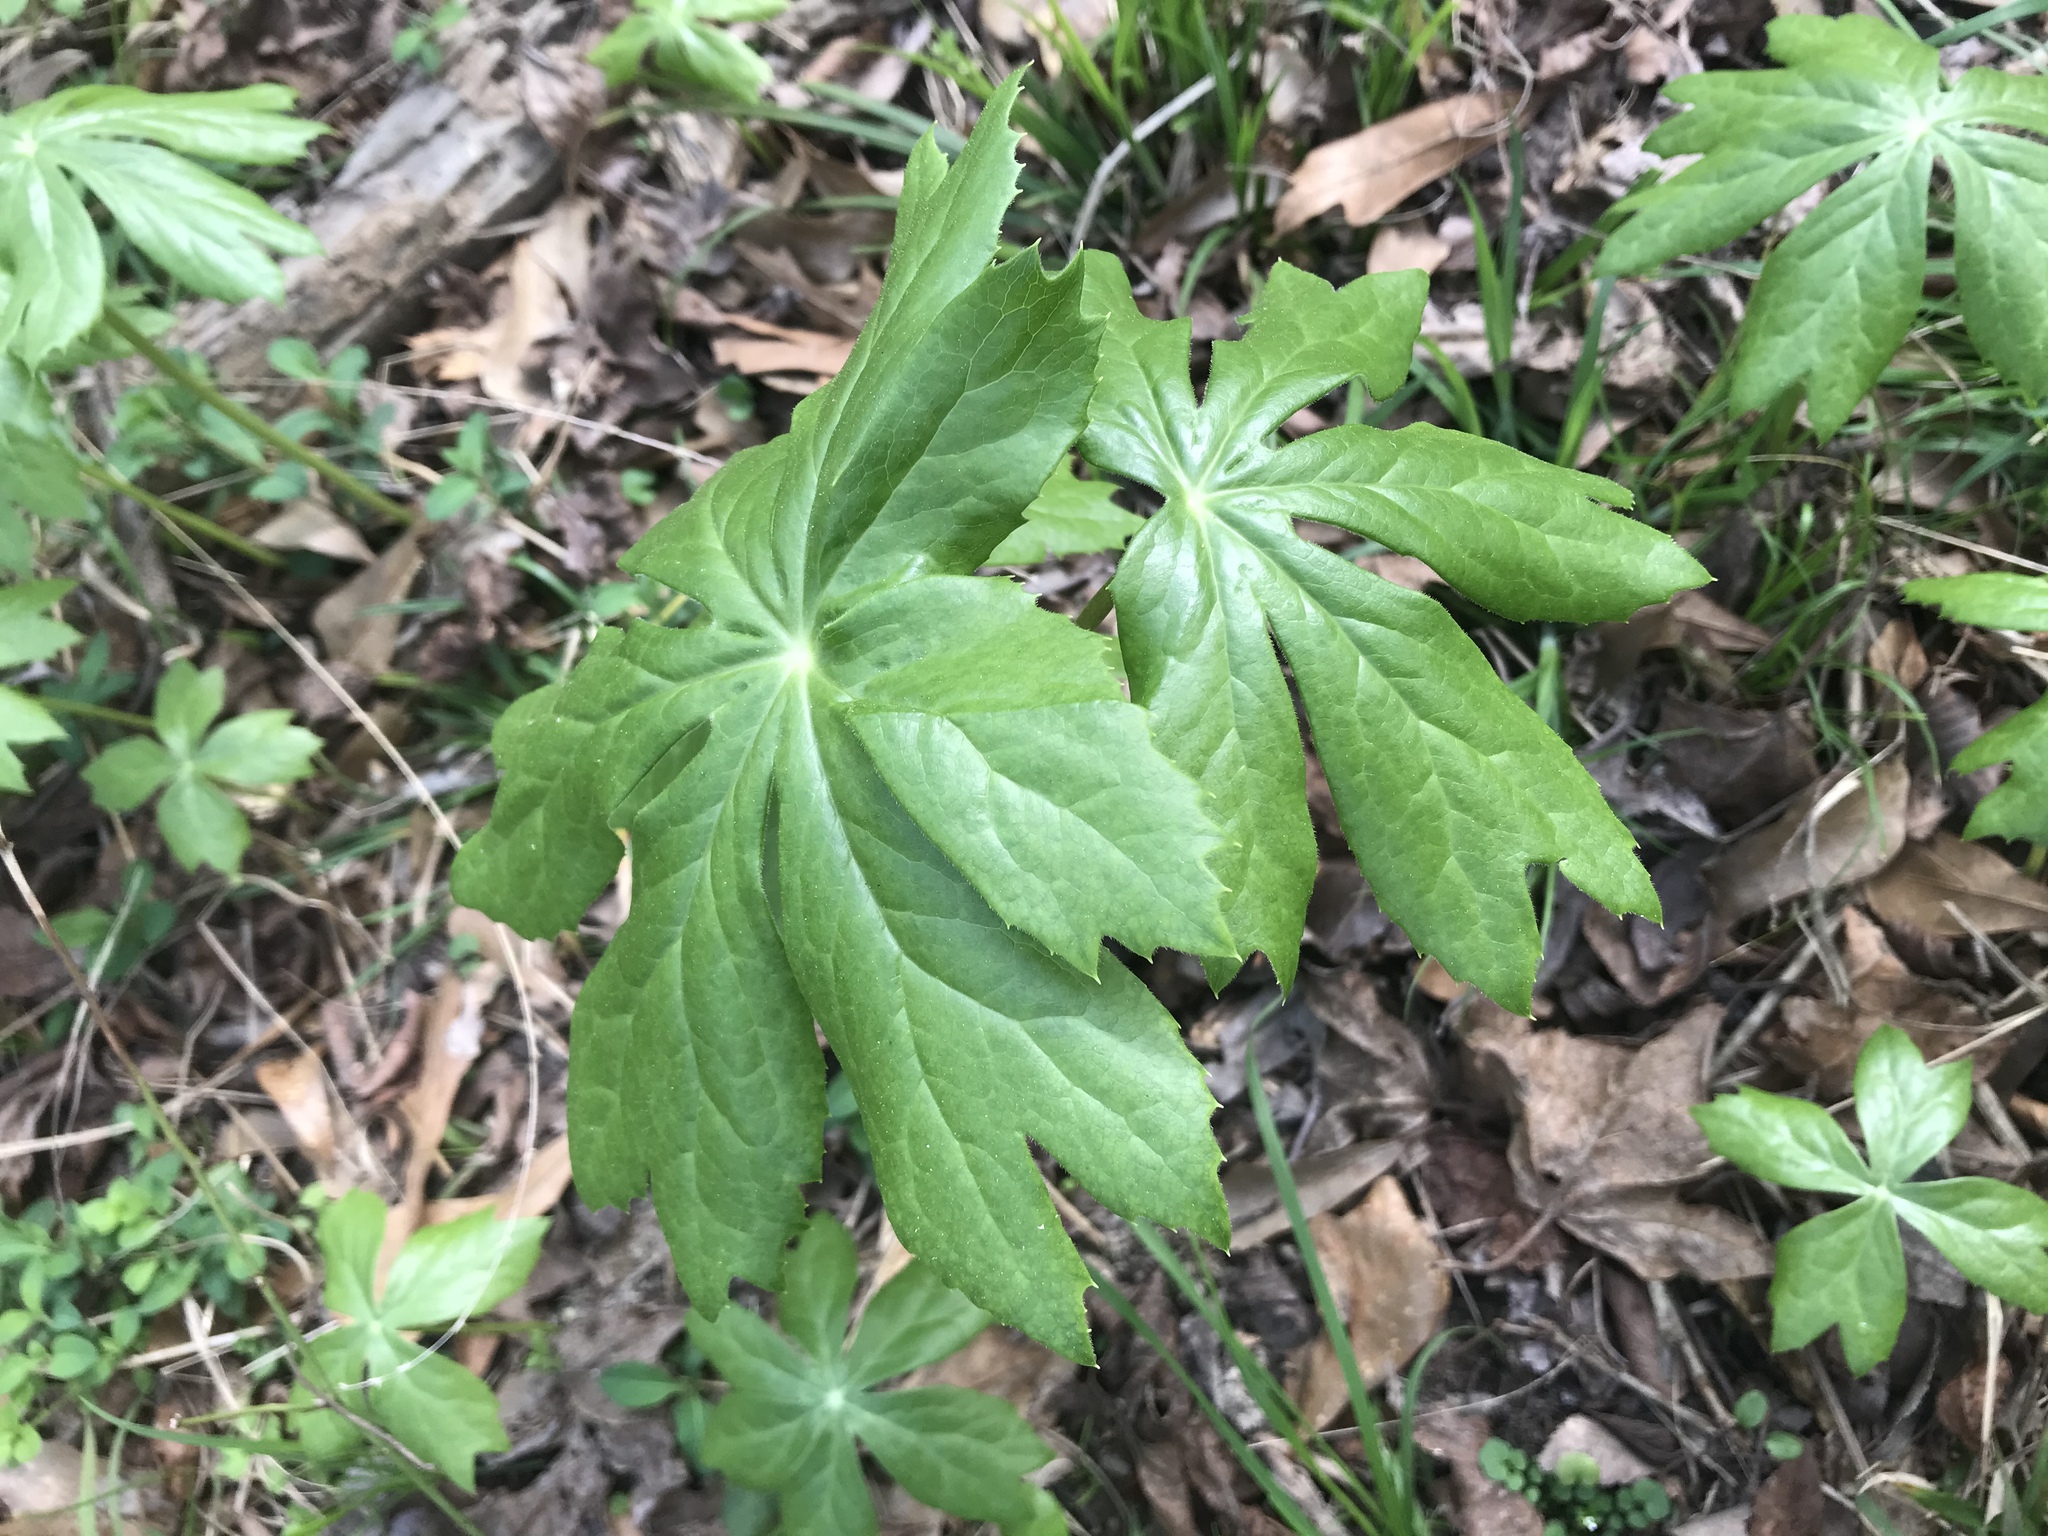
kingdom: Plantae
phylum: Tracheophyta
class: Magnoliopsida
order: Ranunculales
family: Berberidaceae
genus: Podophyllum
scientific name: Podophyllum peltatum
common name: Wild mandrake
